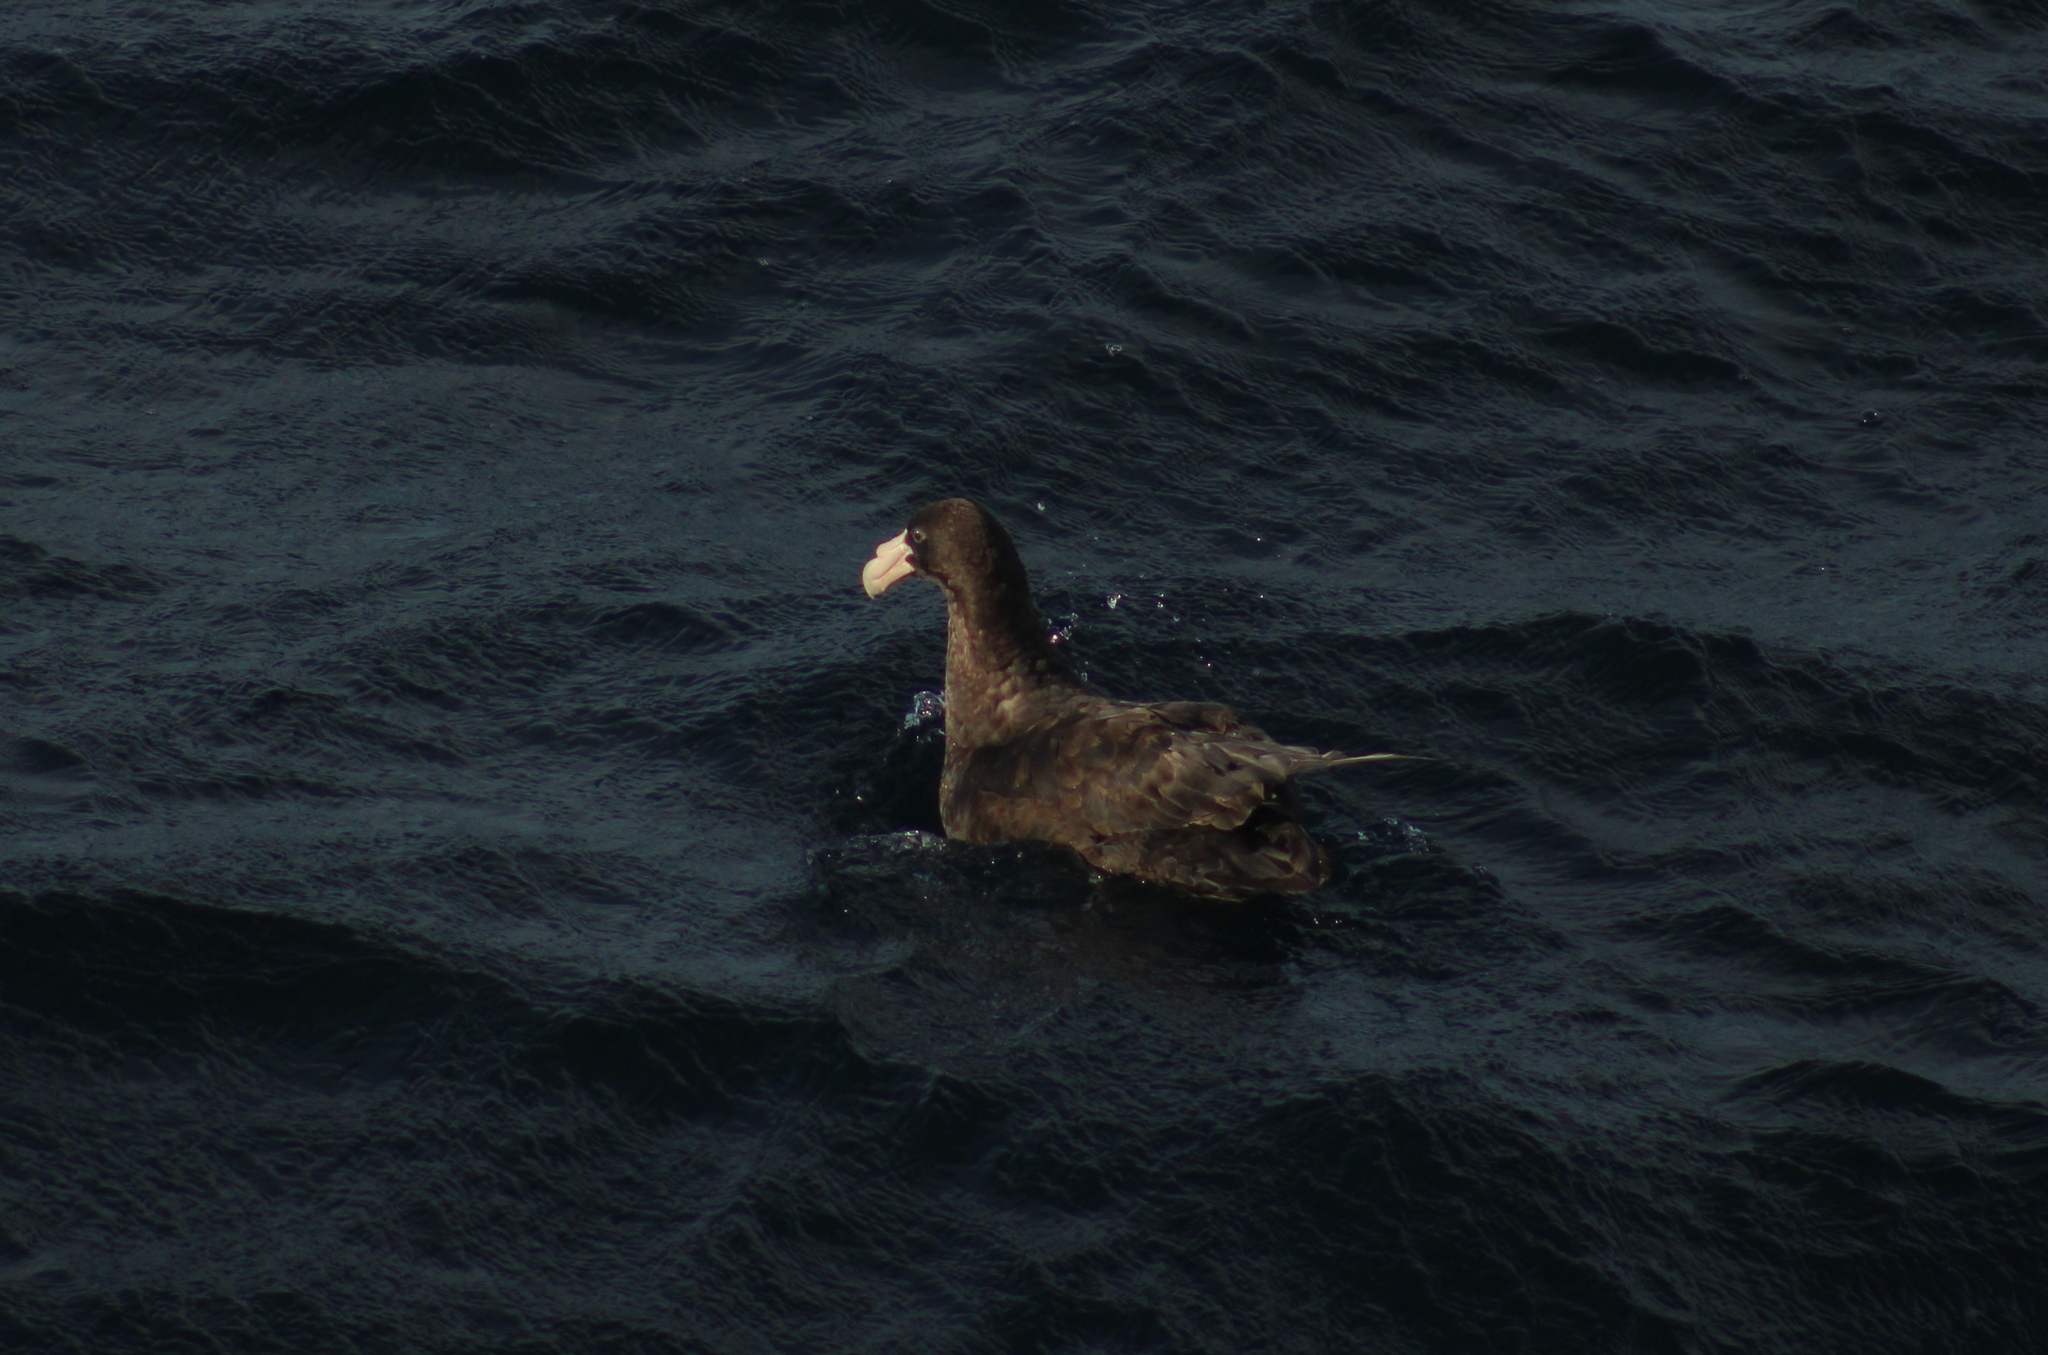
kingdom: Animalia
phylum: Chordata
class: Aves
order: Procellariiformes
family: Procellariidae
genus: Macronectes
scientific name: Macronectes giganteus
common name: Southern giant petrel
